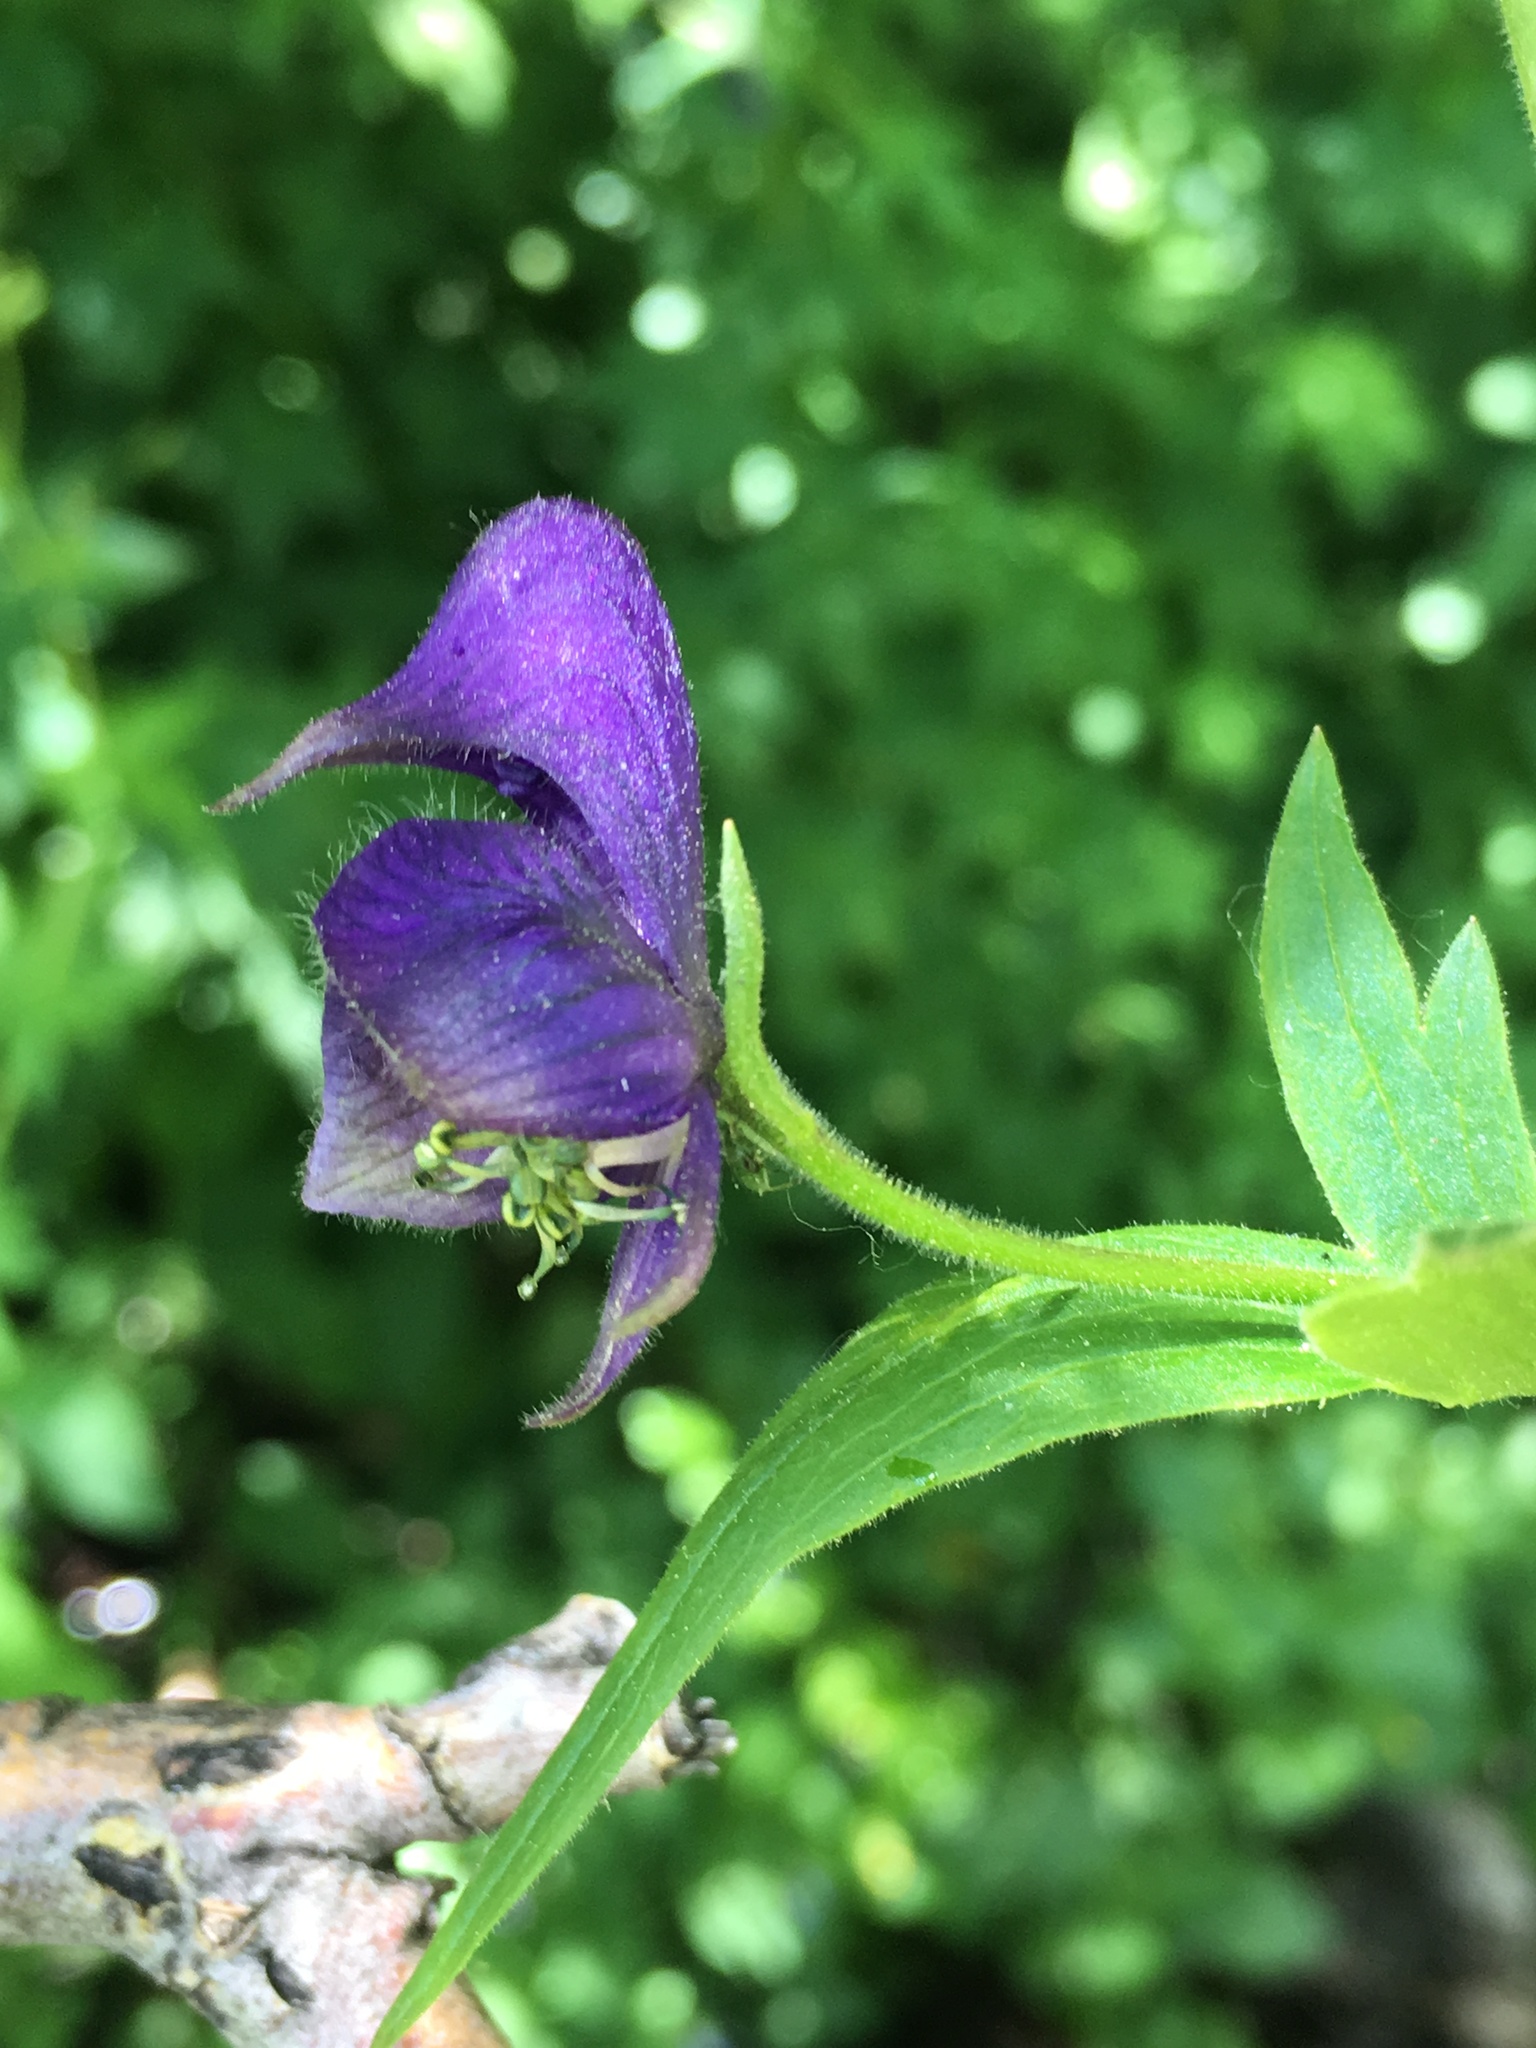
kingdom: Plantae
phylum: Tracheophyta
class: Magnoliopsida
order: Ranunculales
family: Ranunculaceae
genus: Aconitum
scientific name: Aconitum columbianum
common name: Columbia aconite
